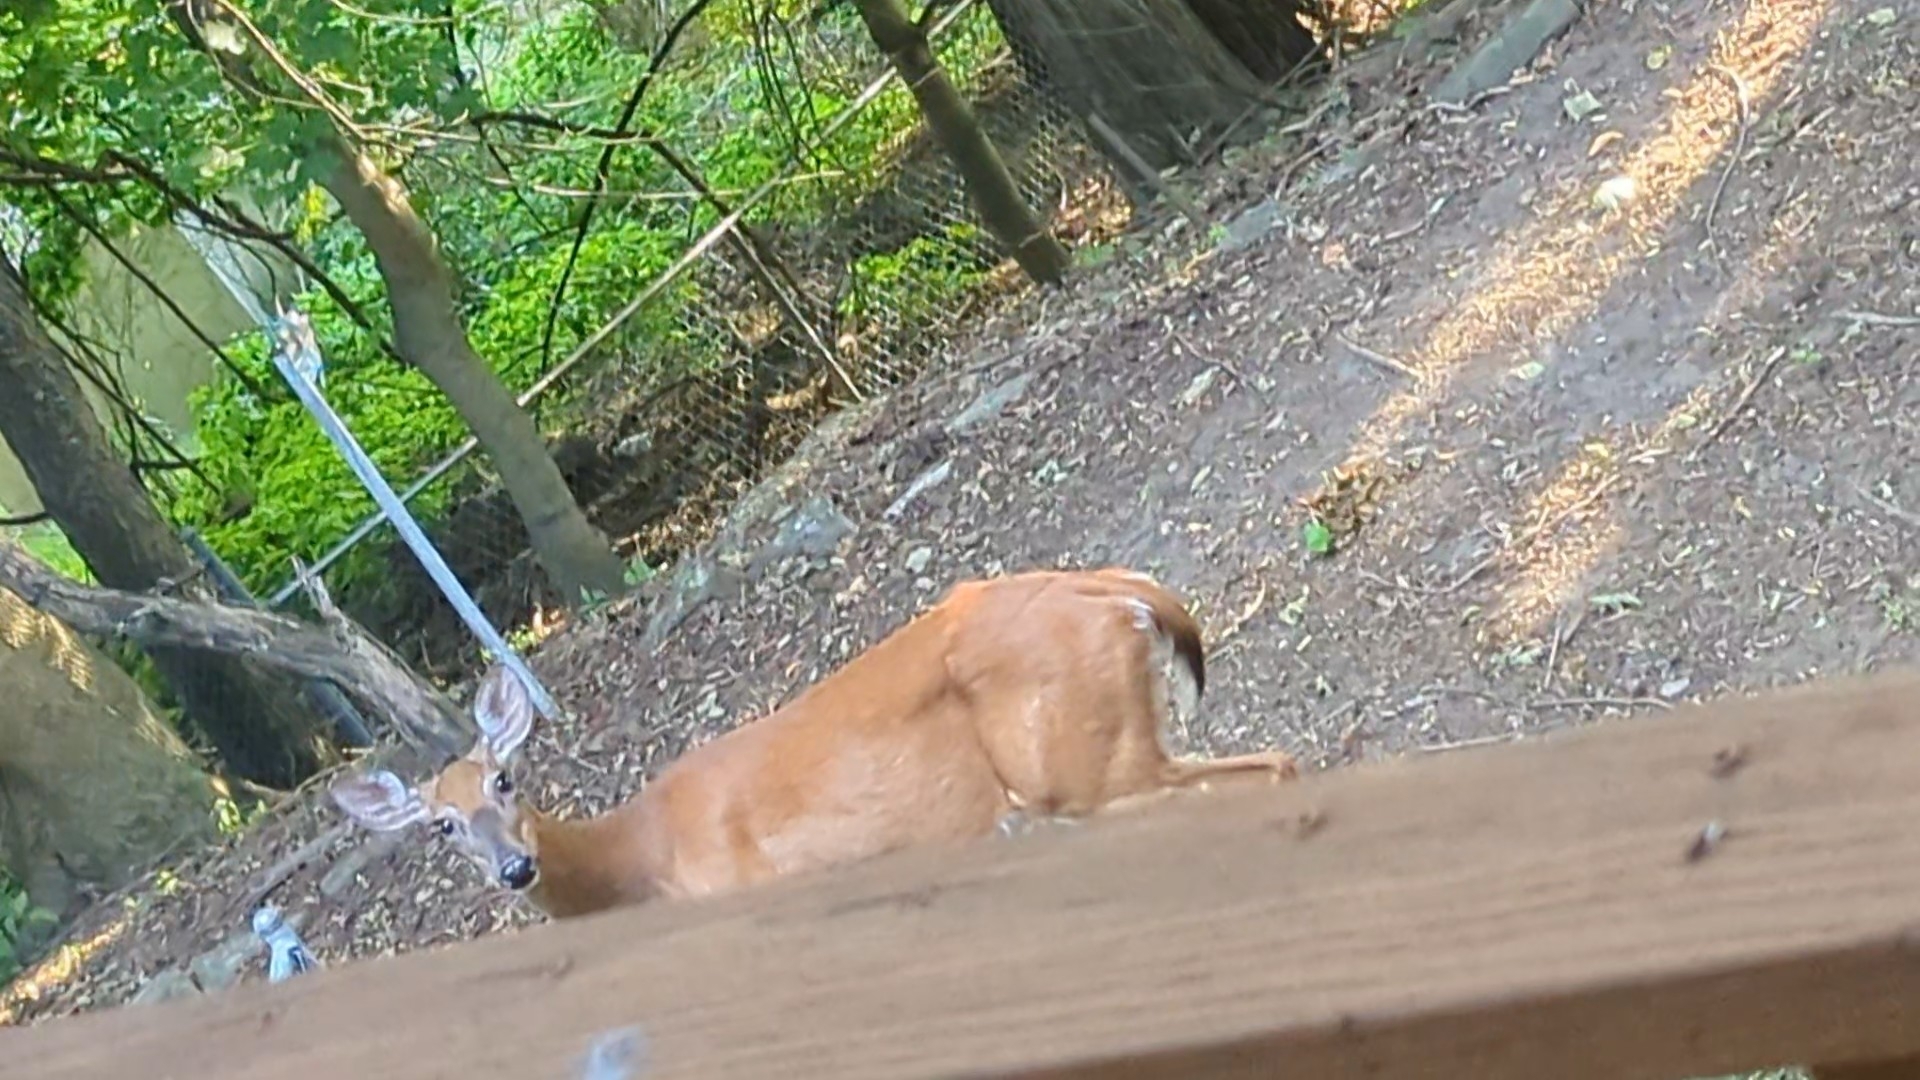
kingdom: Animalia
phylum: Chordata
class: Mammalia
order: Artiodactyla
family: Cervidae
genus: Odocoileus
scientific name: Odocoileus virginianus
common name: White-tailed deer
